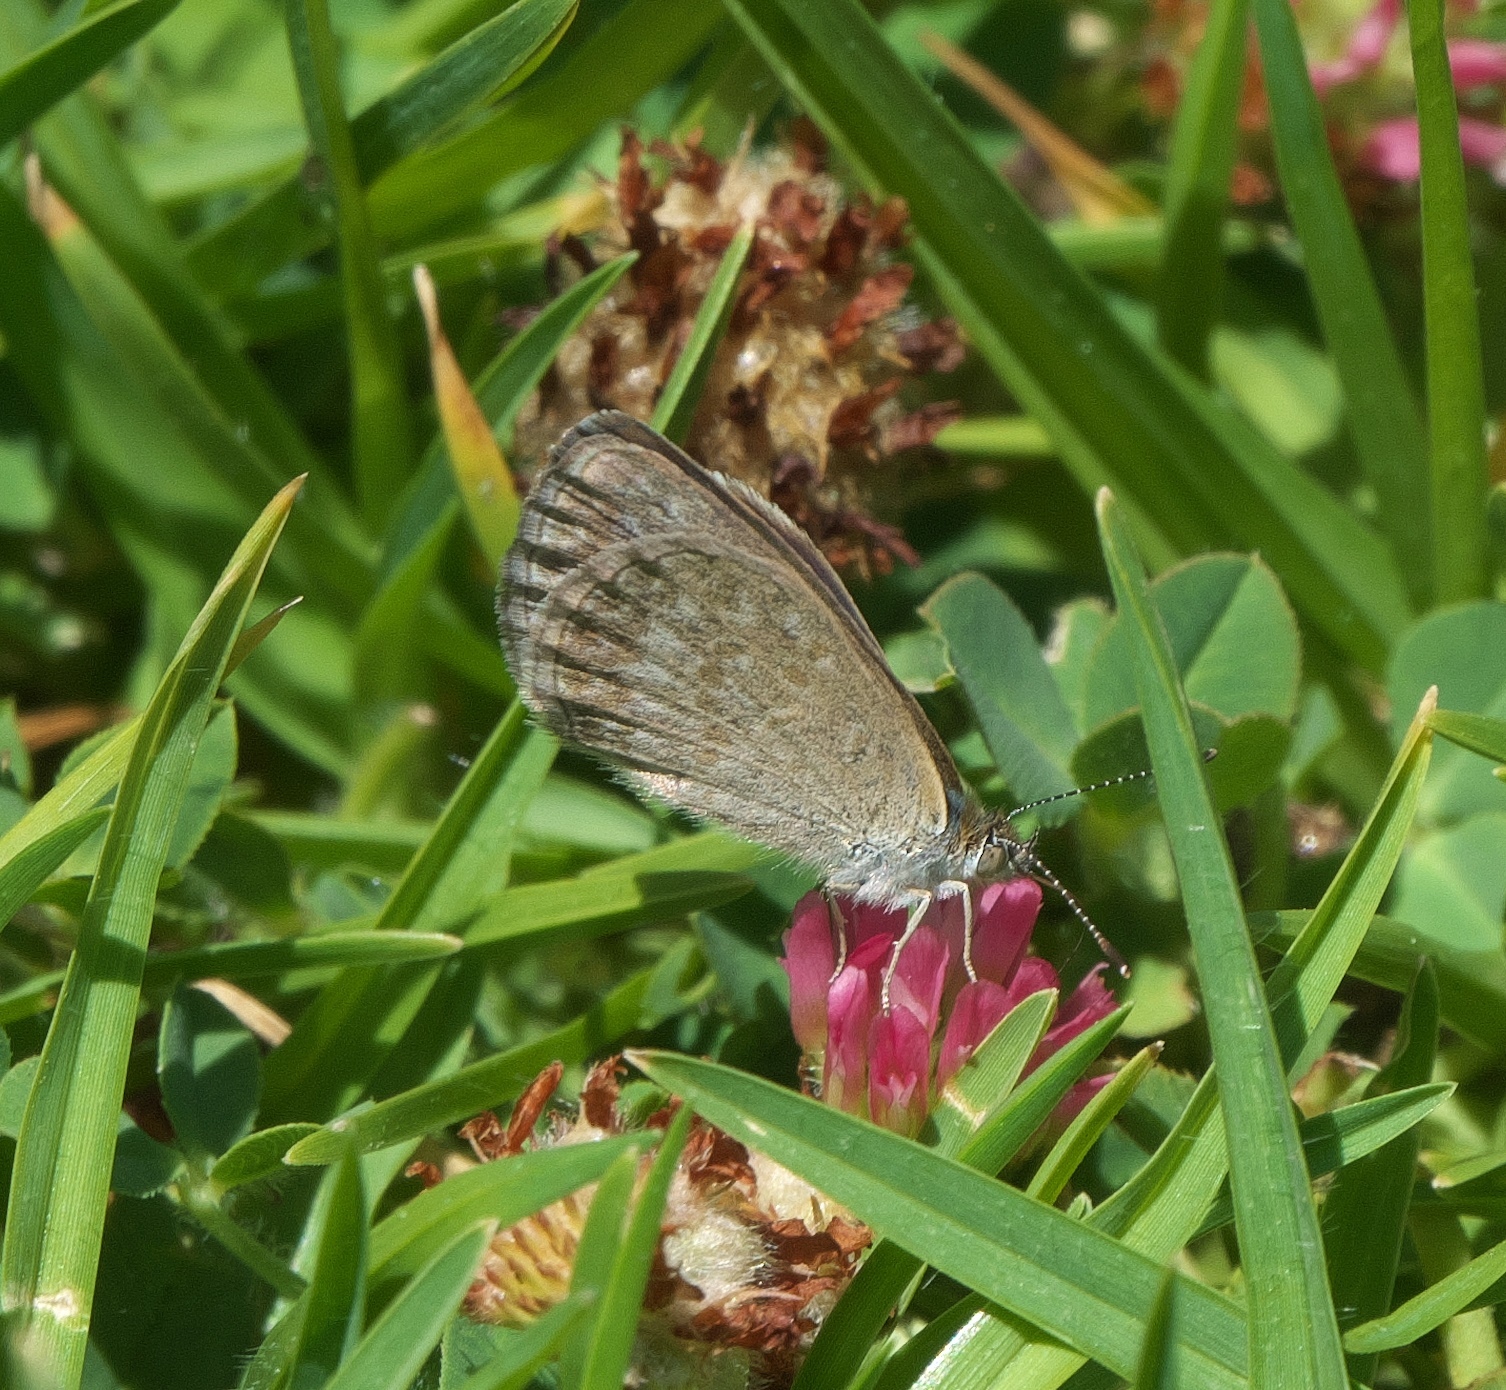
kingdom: Animalia
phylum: Arthropoda
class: Insecta
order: Lepidoptera
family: Lycaenidae
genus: Zizina
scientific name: Zizina labradus
